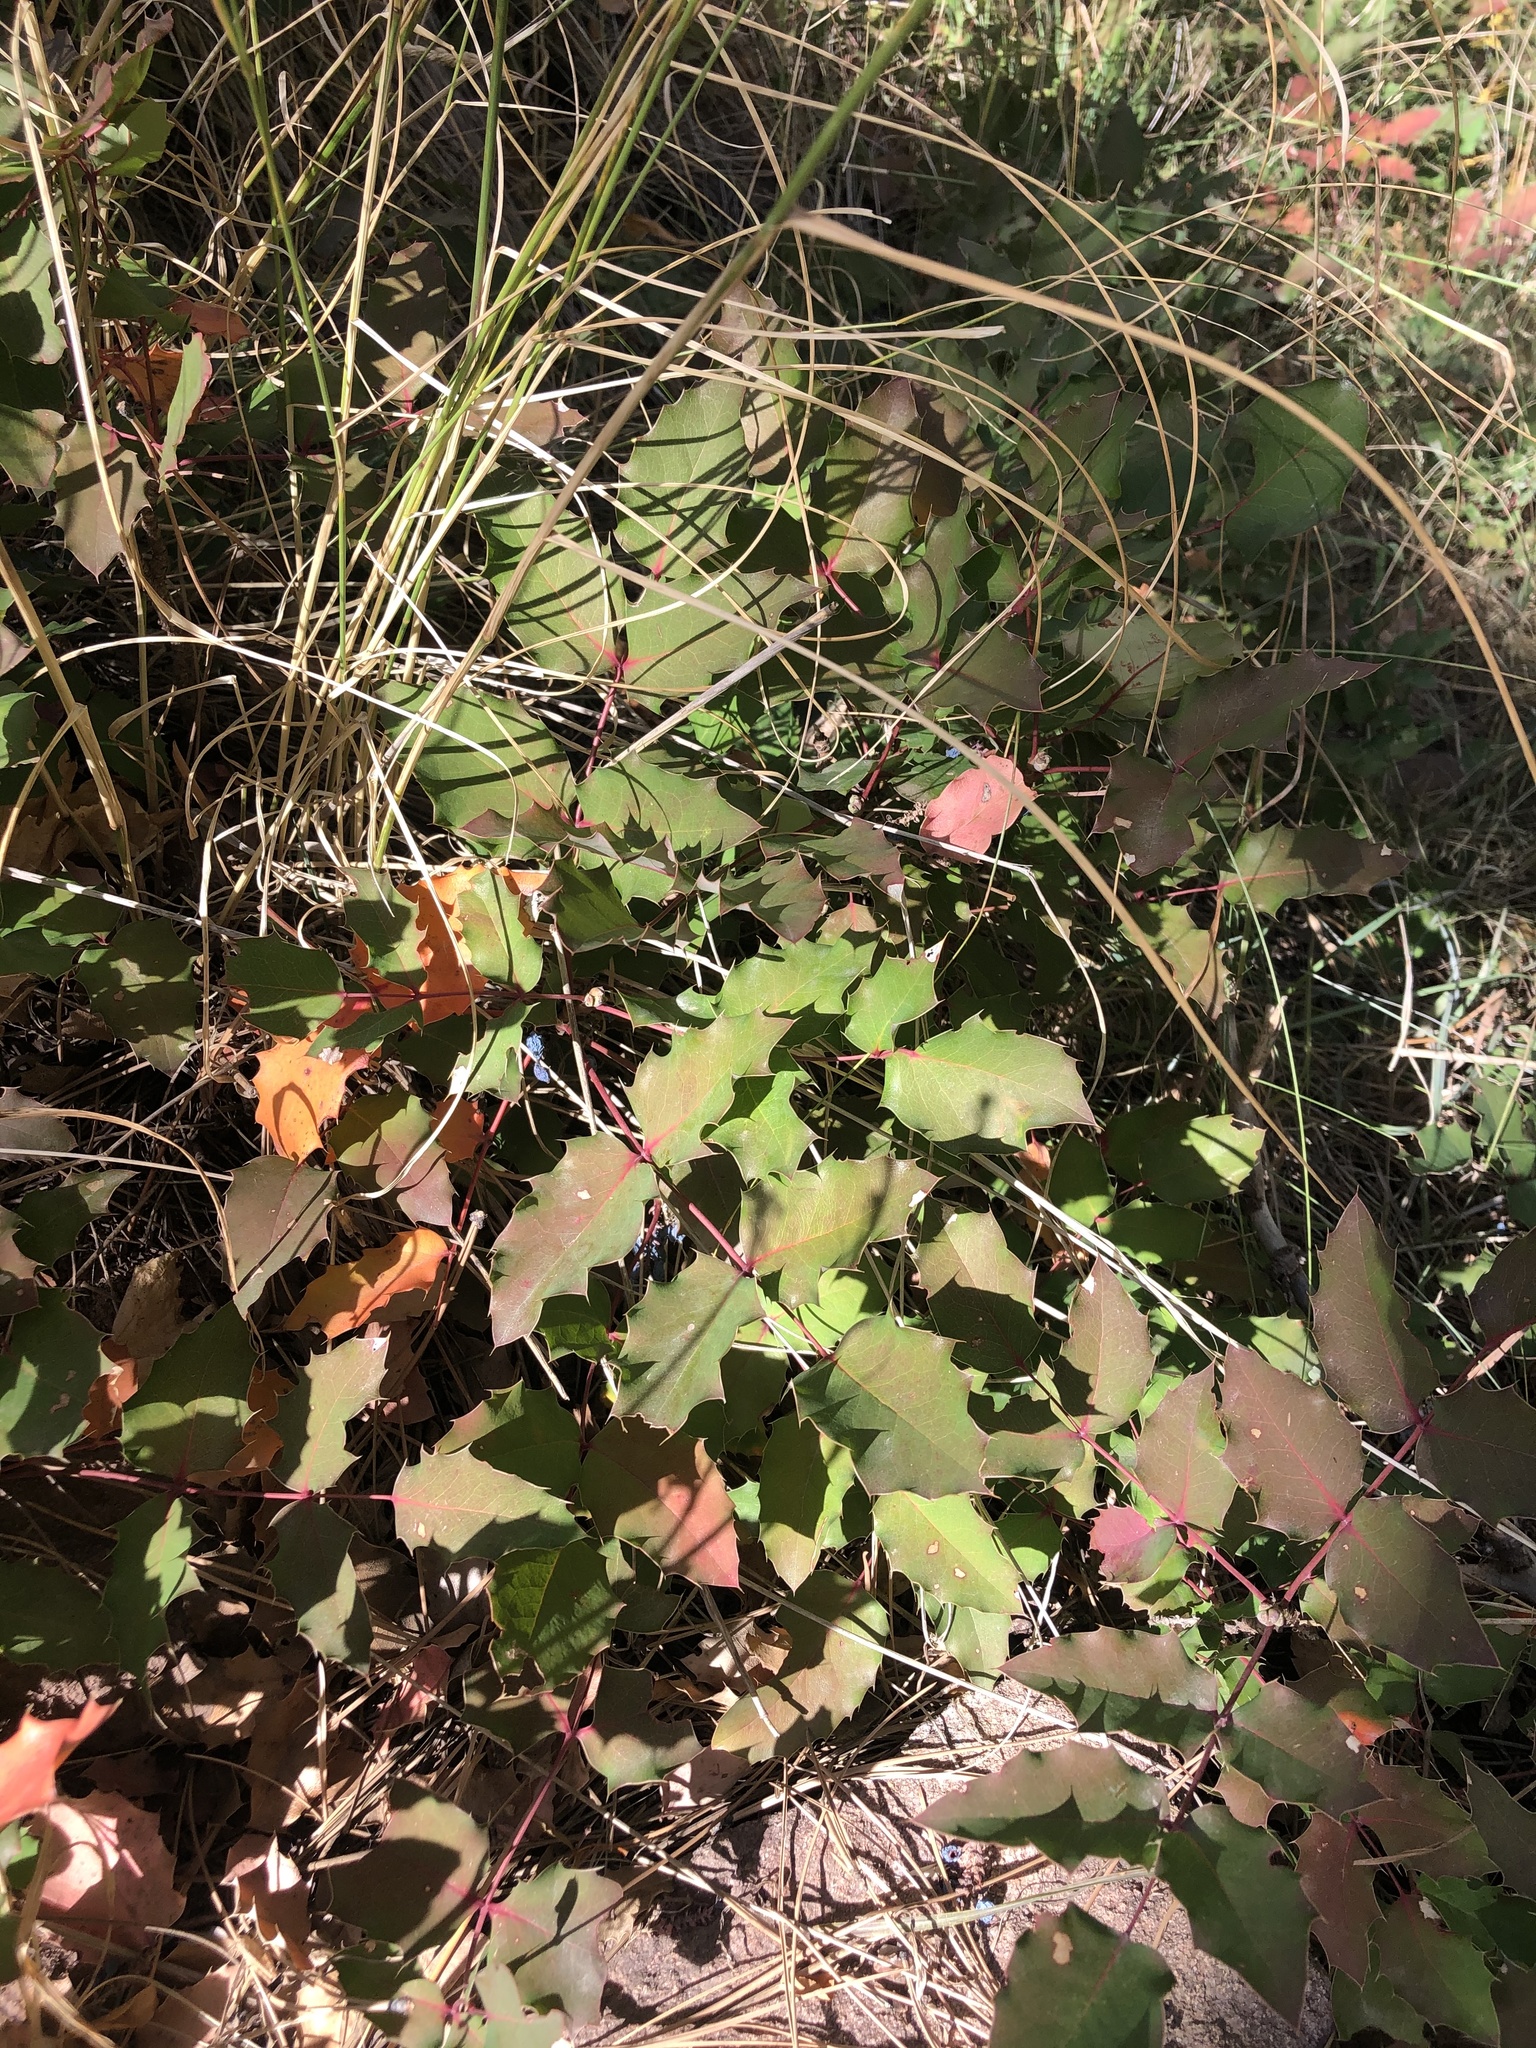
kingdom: Plantae
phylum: Tracheophyta
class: Magnoliopsida
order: Ranunculales
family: Berberidaceae
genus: Mahonia
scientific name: Mahonia repens
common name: Creeping oregon-grape
